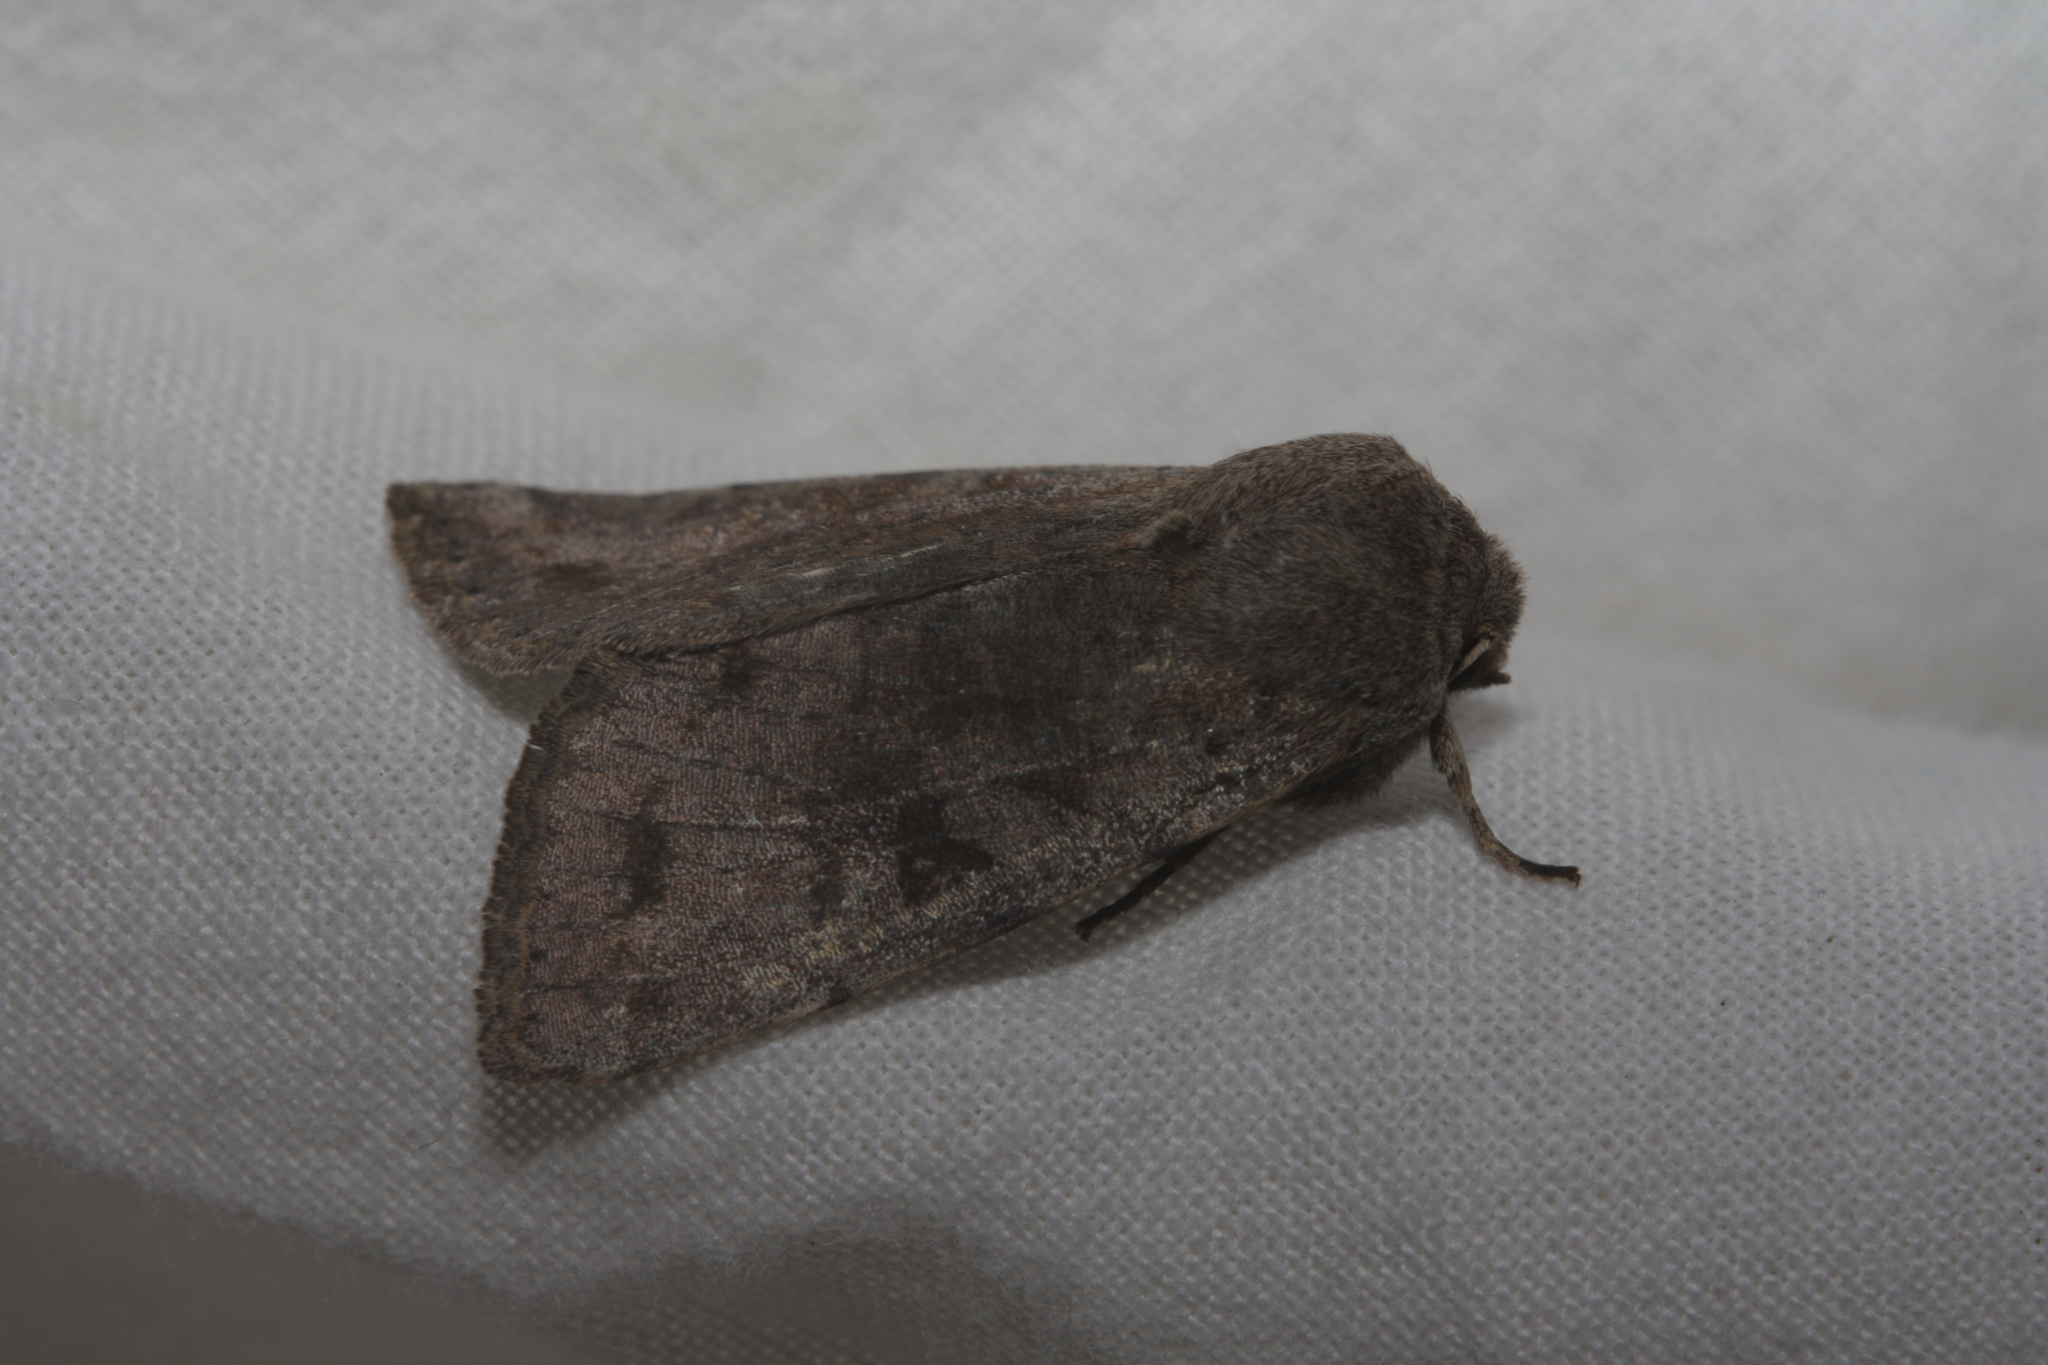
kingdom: Animalia
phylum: Arthropoda
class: Insecta
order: Lepidoptera
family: Noctuidae
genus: Orthosia
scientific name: Orthosia incerta
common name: Clouded drab
